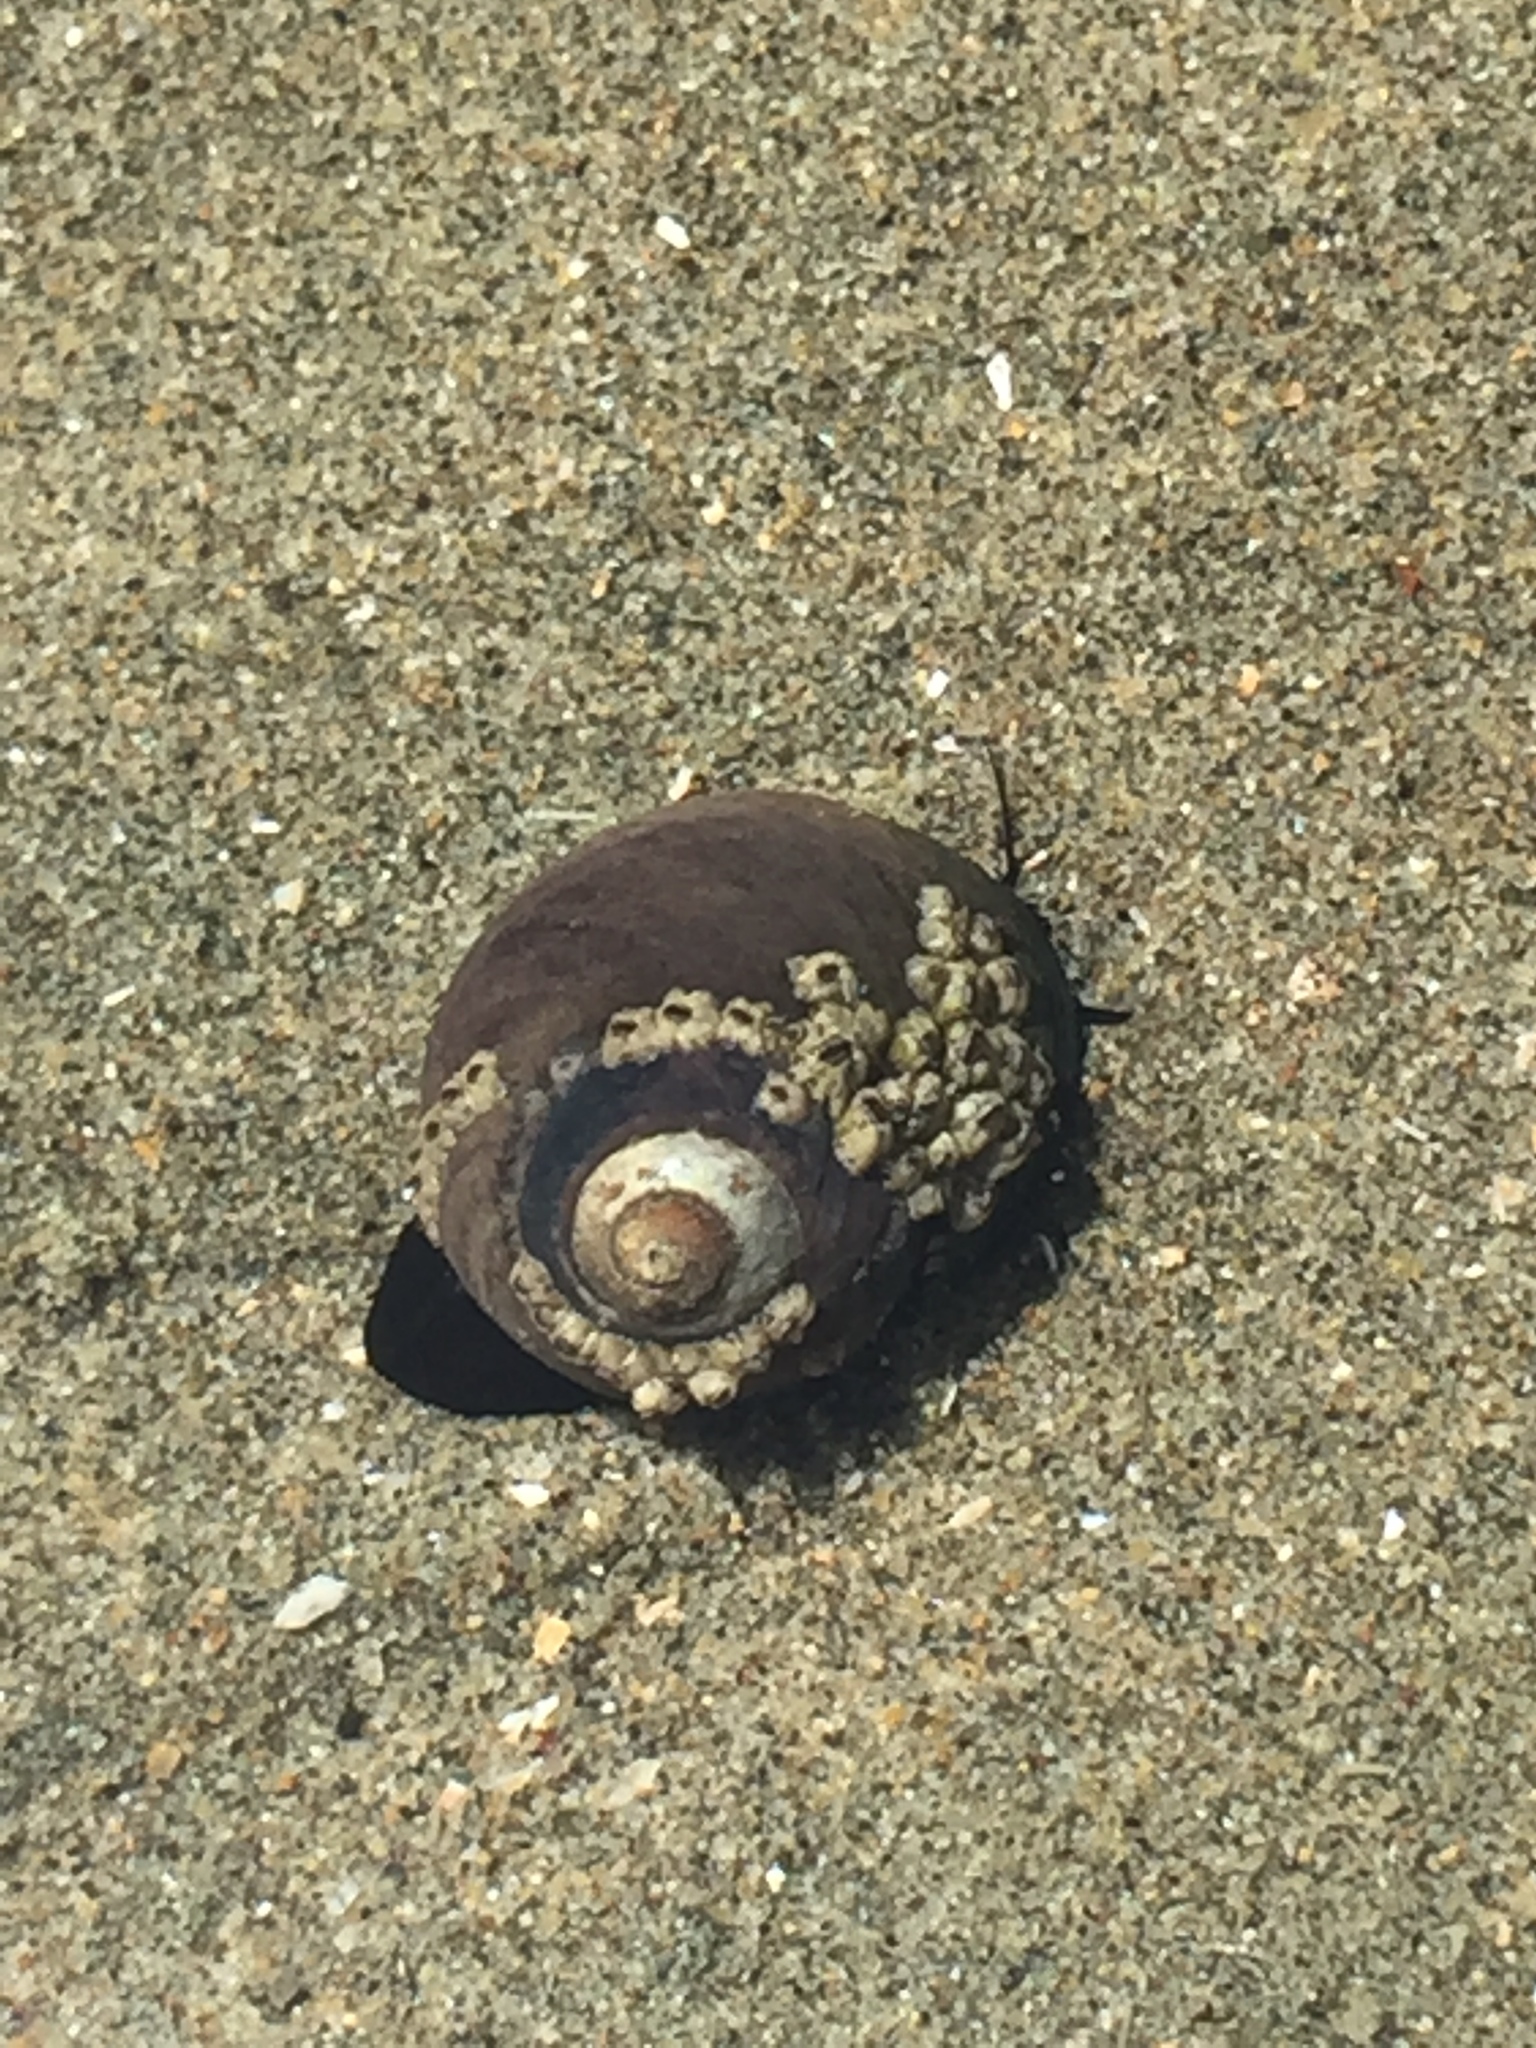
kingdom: Animalia
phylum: Mollusca
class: Gastropoda
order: Trochida
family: Tegulidae
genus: Tegula
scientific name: Tegula funebralis
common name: Black tegula
